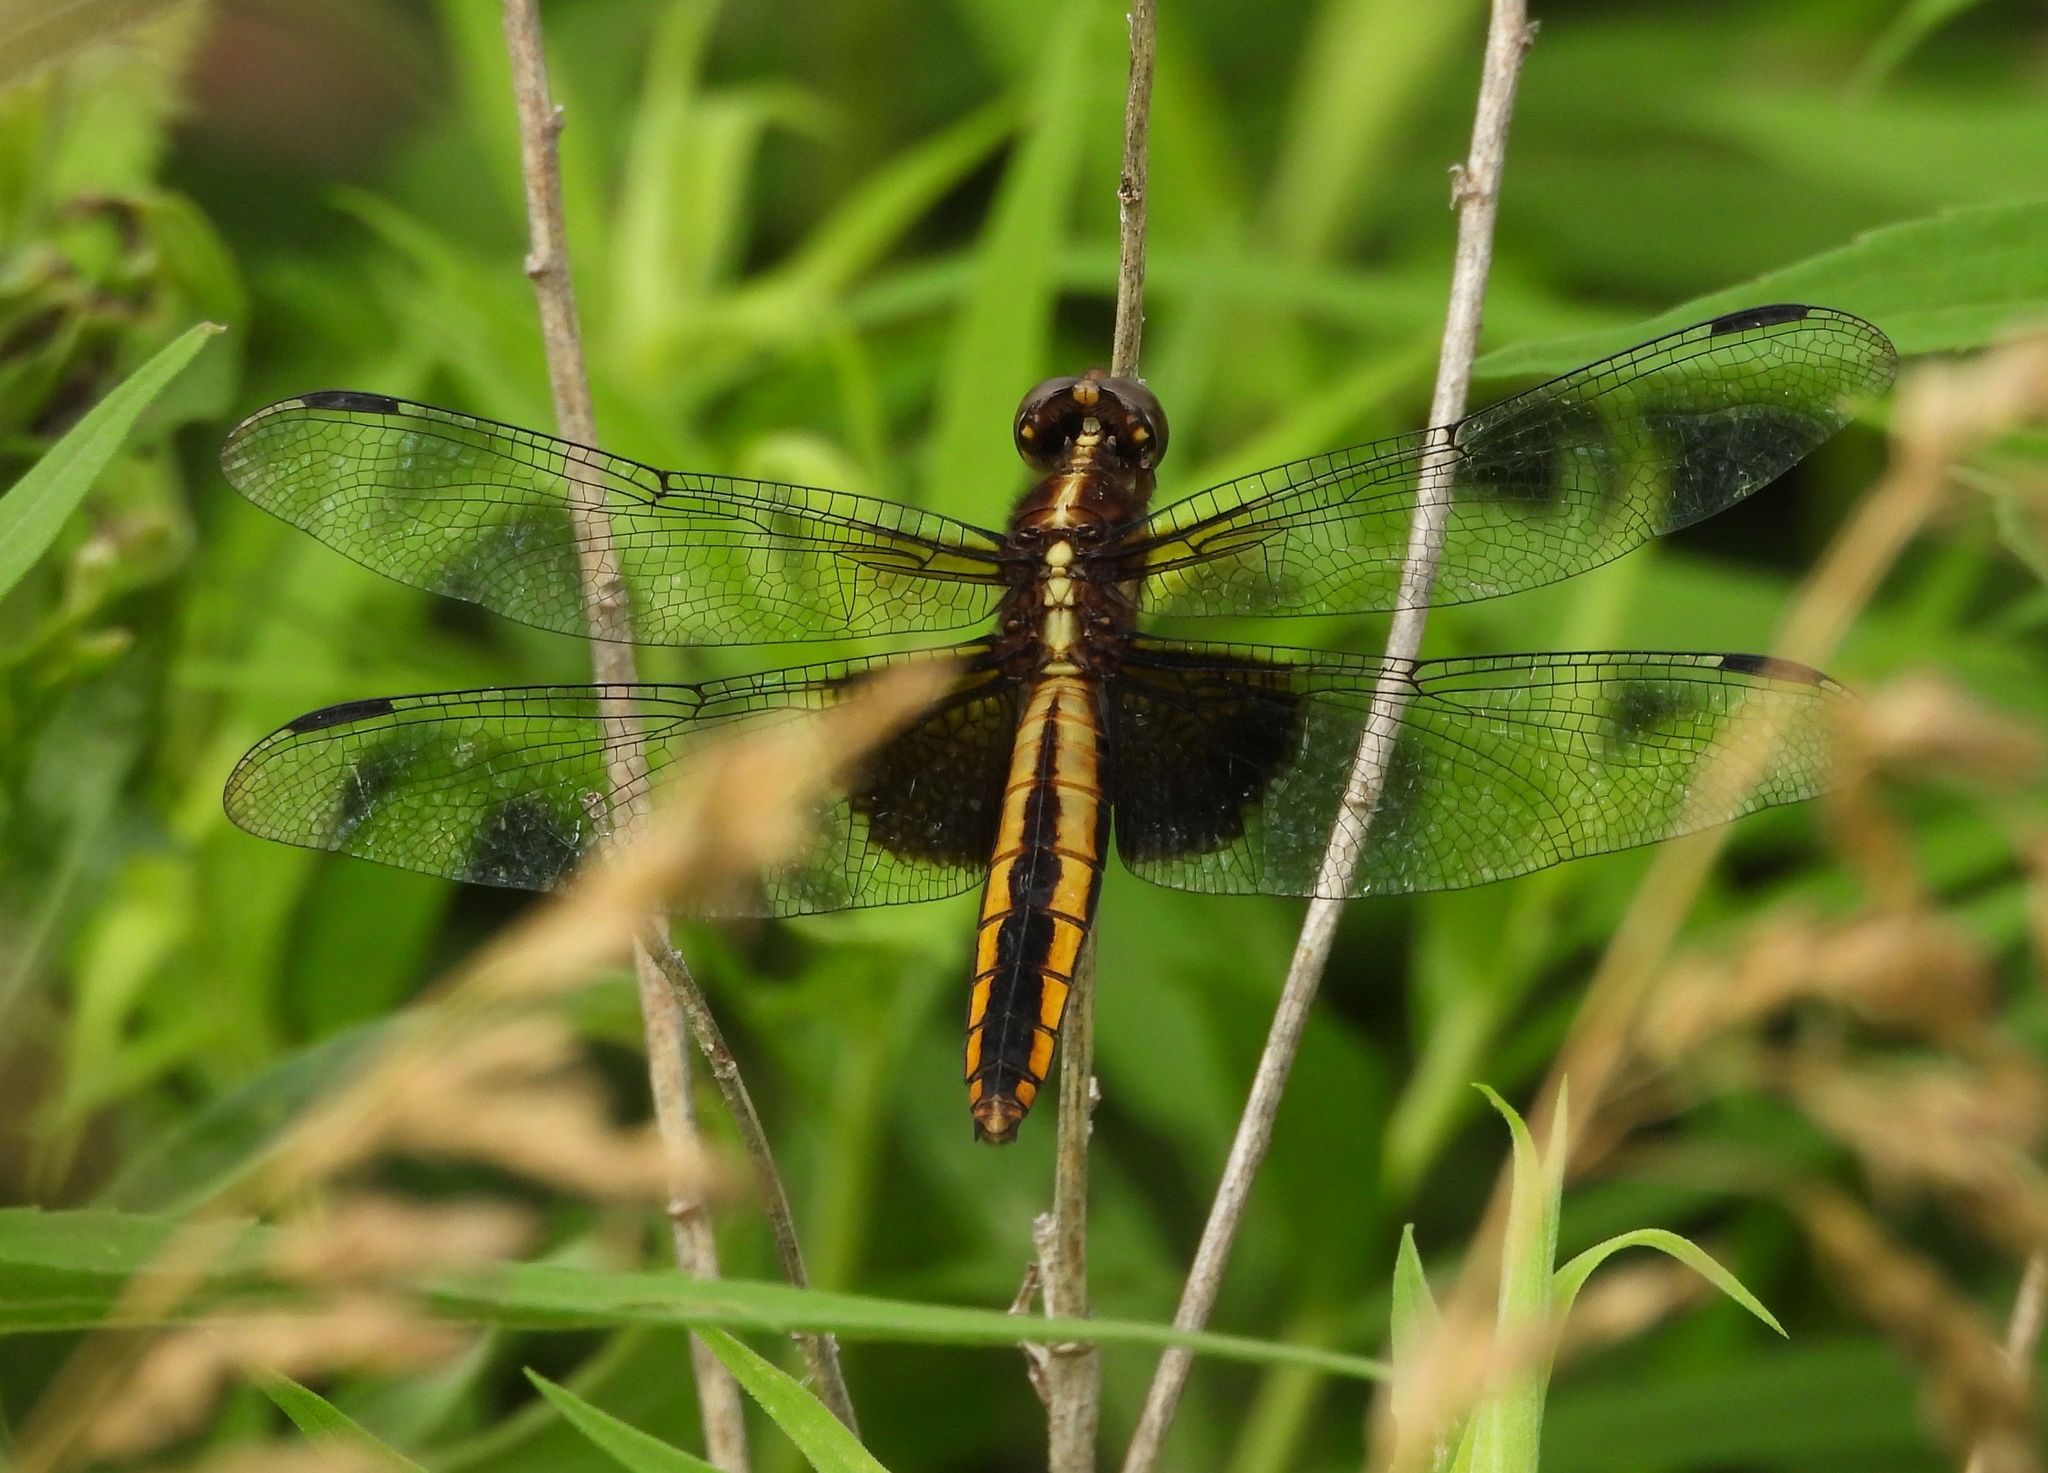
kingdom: Animalia
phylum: Arthropoda
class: Insecta
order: Odonata
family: Libellulidae
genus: Libellula
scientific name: Libellula luctuosa
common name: Widow skimmer
